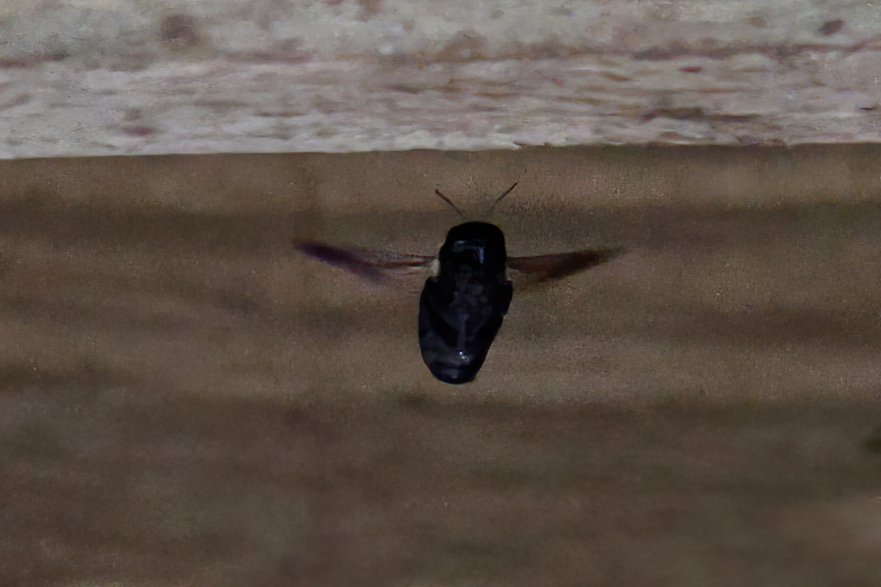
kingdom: Animalia
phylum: Arthropoda
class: Insecta
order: Hymenoptera
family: Apidae
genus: Xylocopa
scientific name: Xylocopa virginica
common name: Carpenter bee
